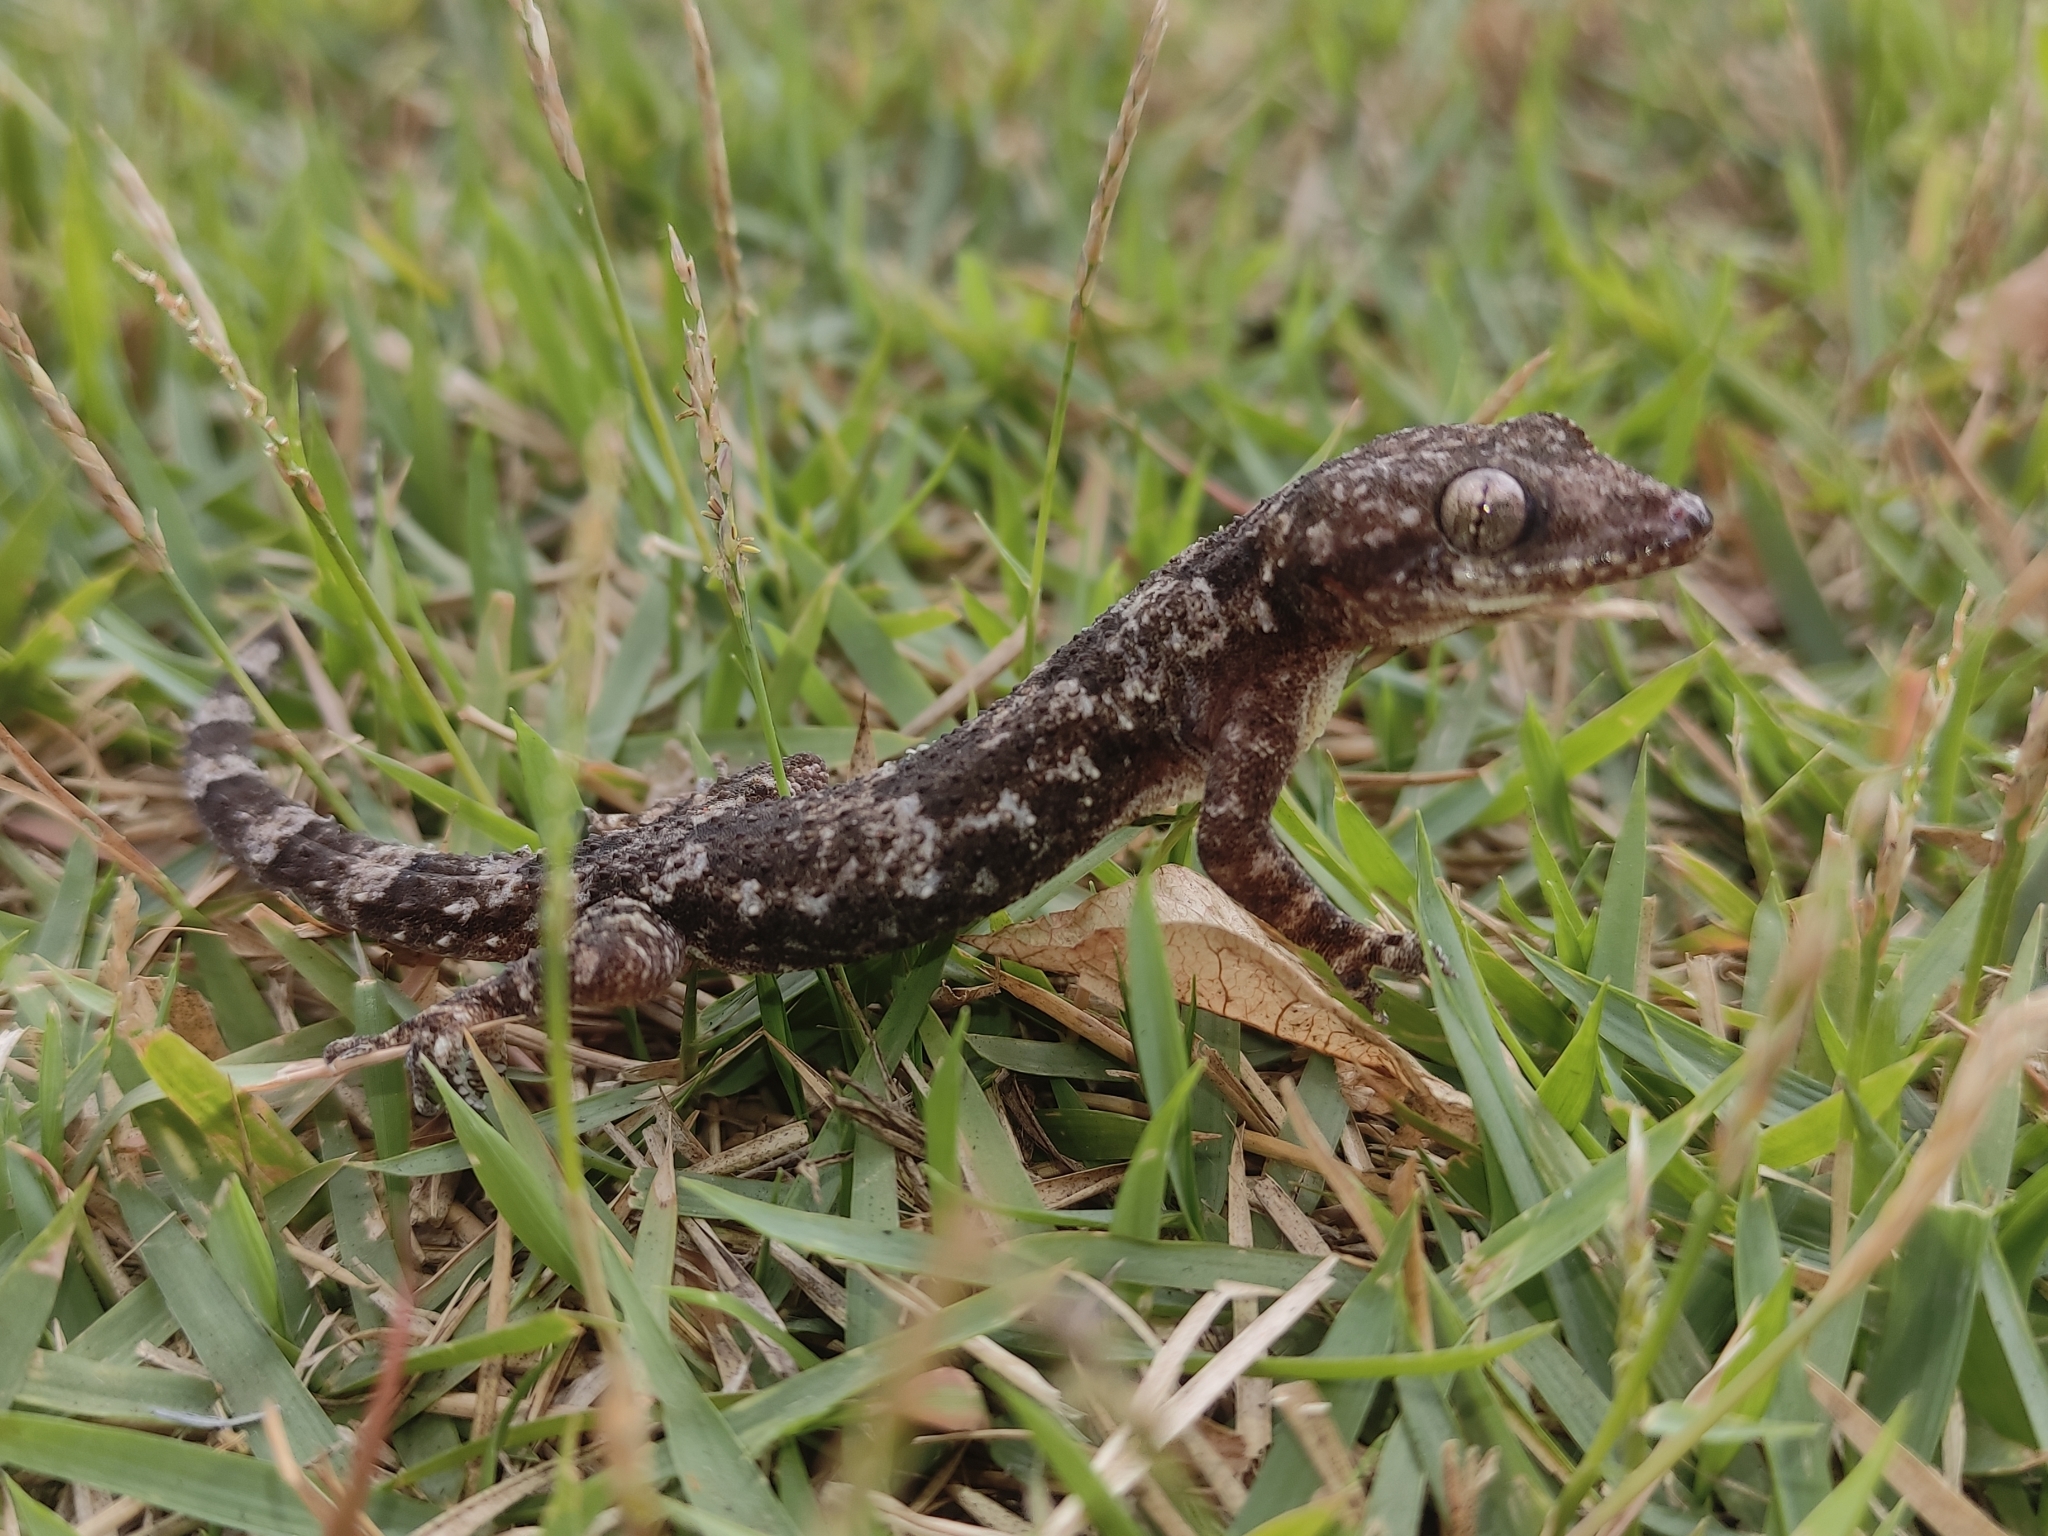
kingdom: Animalia
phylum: Chordata
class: Squamata
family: Gekkonidae
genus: Hemidactylus
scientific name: Hemidactylus mabouia
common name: House gecko
